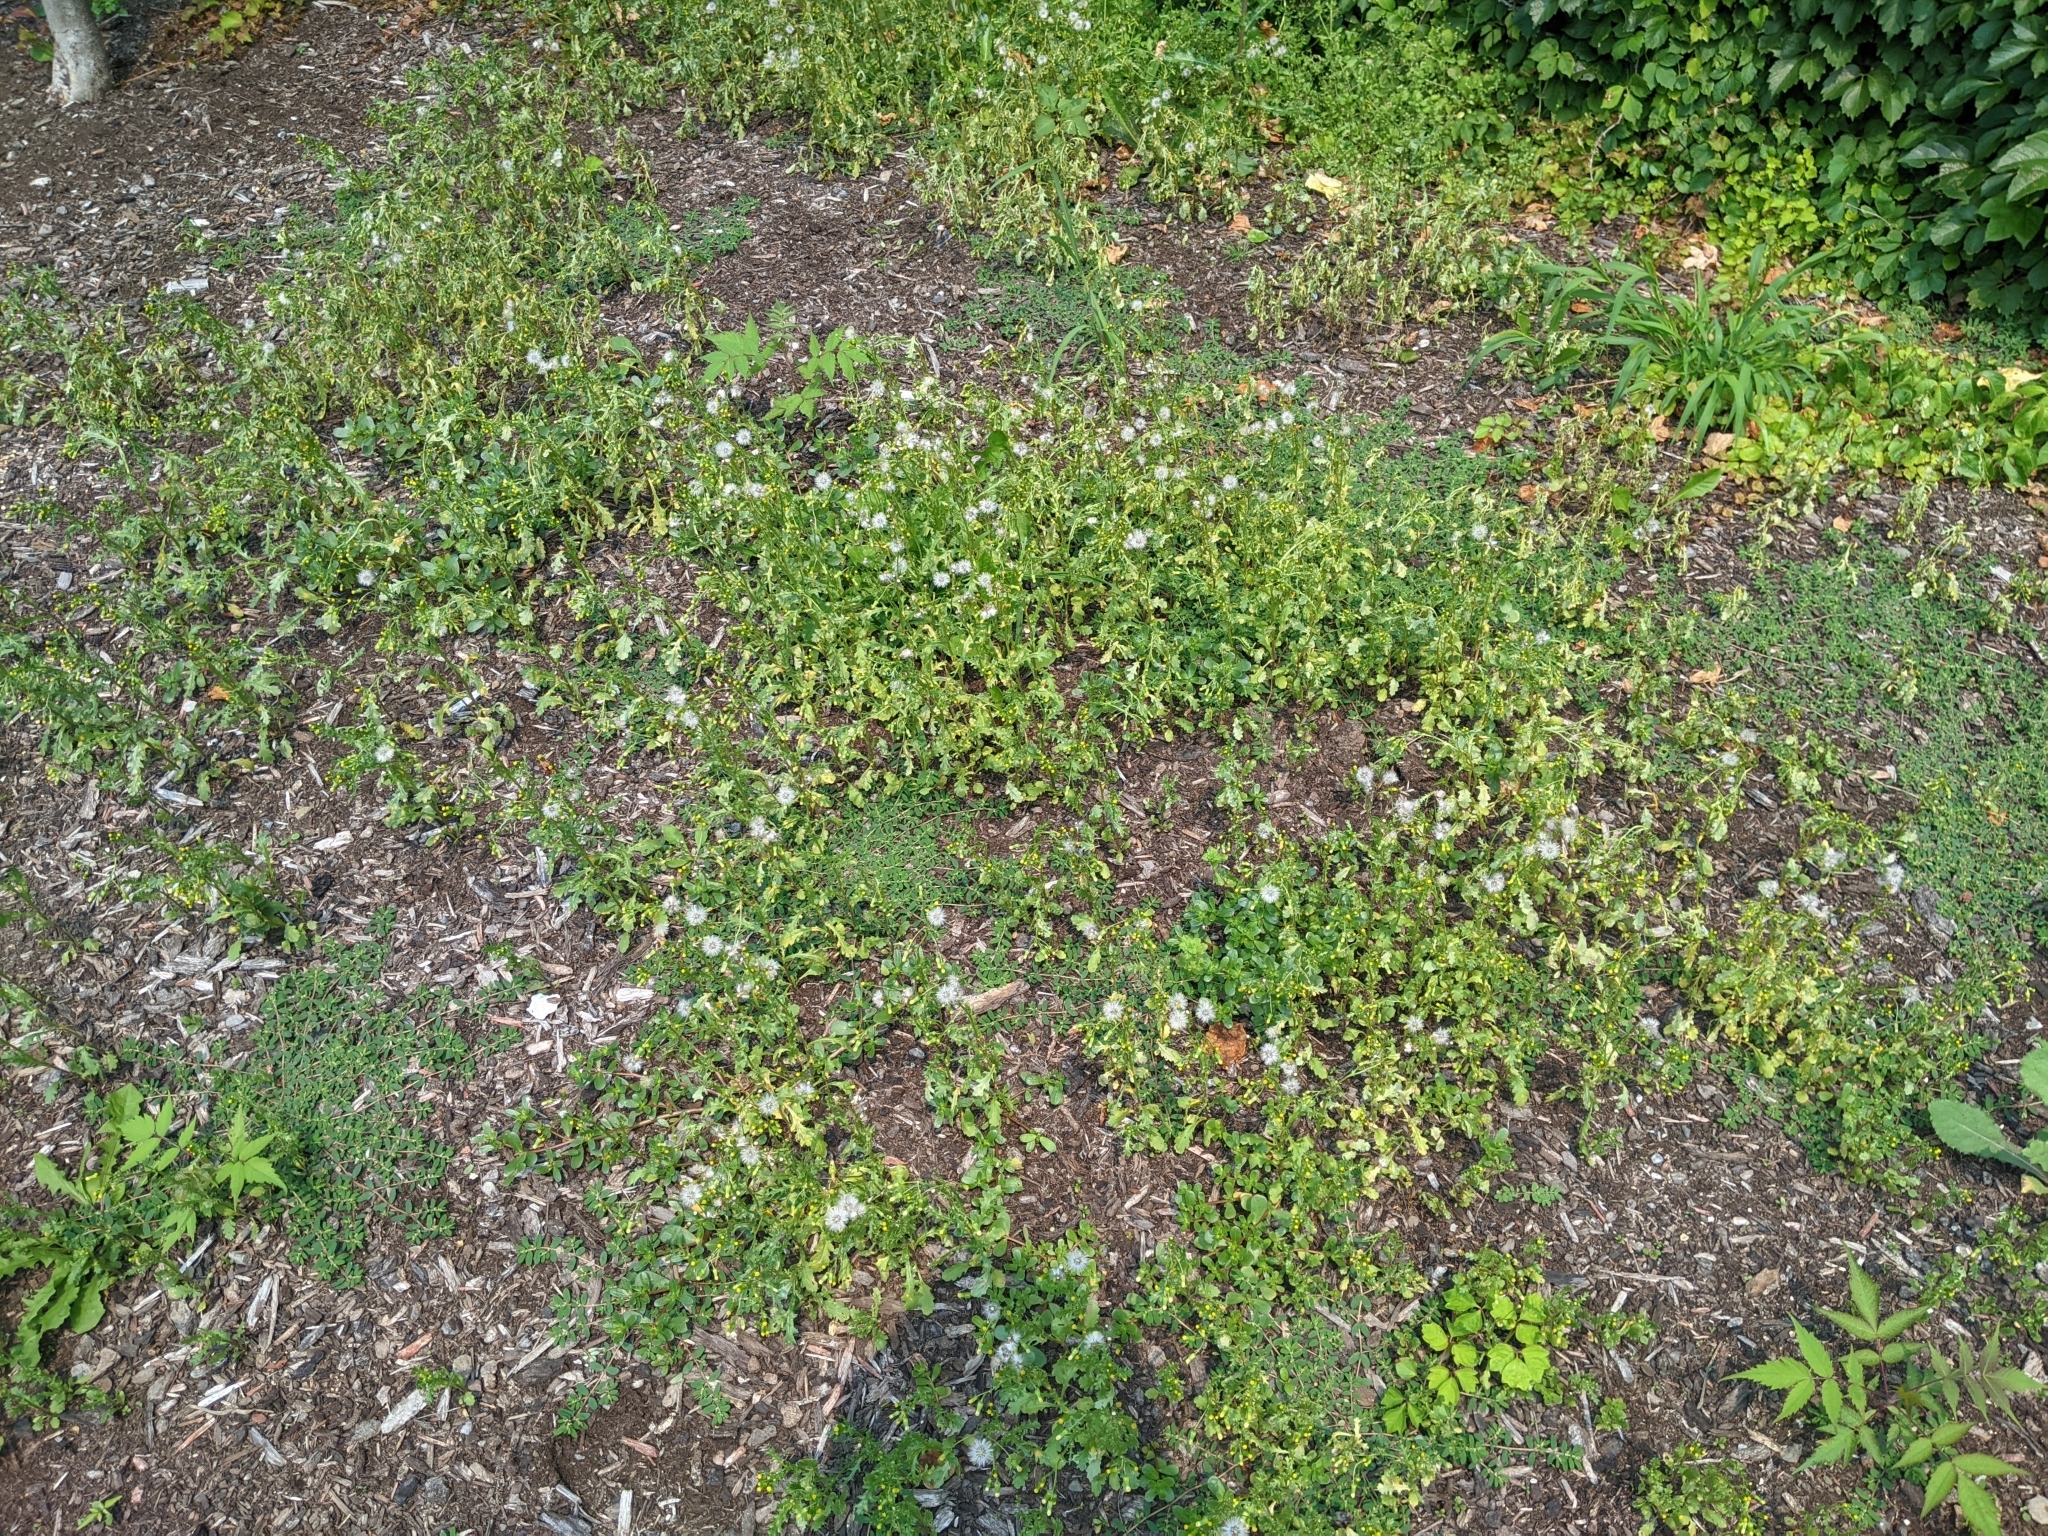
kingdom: Fungi
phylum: Basidiomycota
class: Pucciniomycetes
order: Pucciniales
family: Pucciniaceae
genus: Puccinia
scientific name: Puccinia lagenophorae
